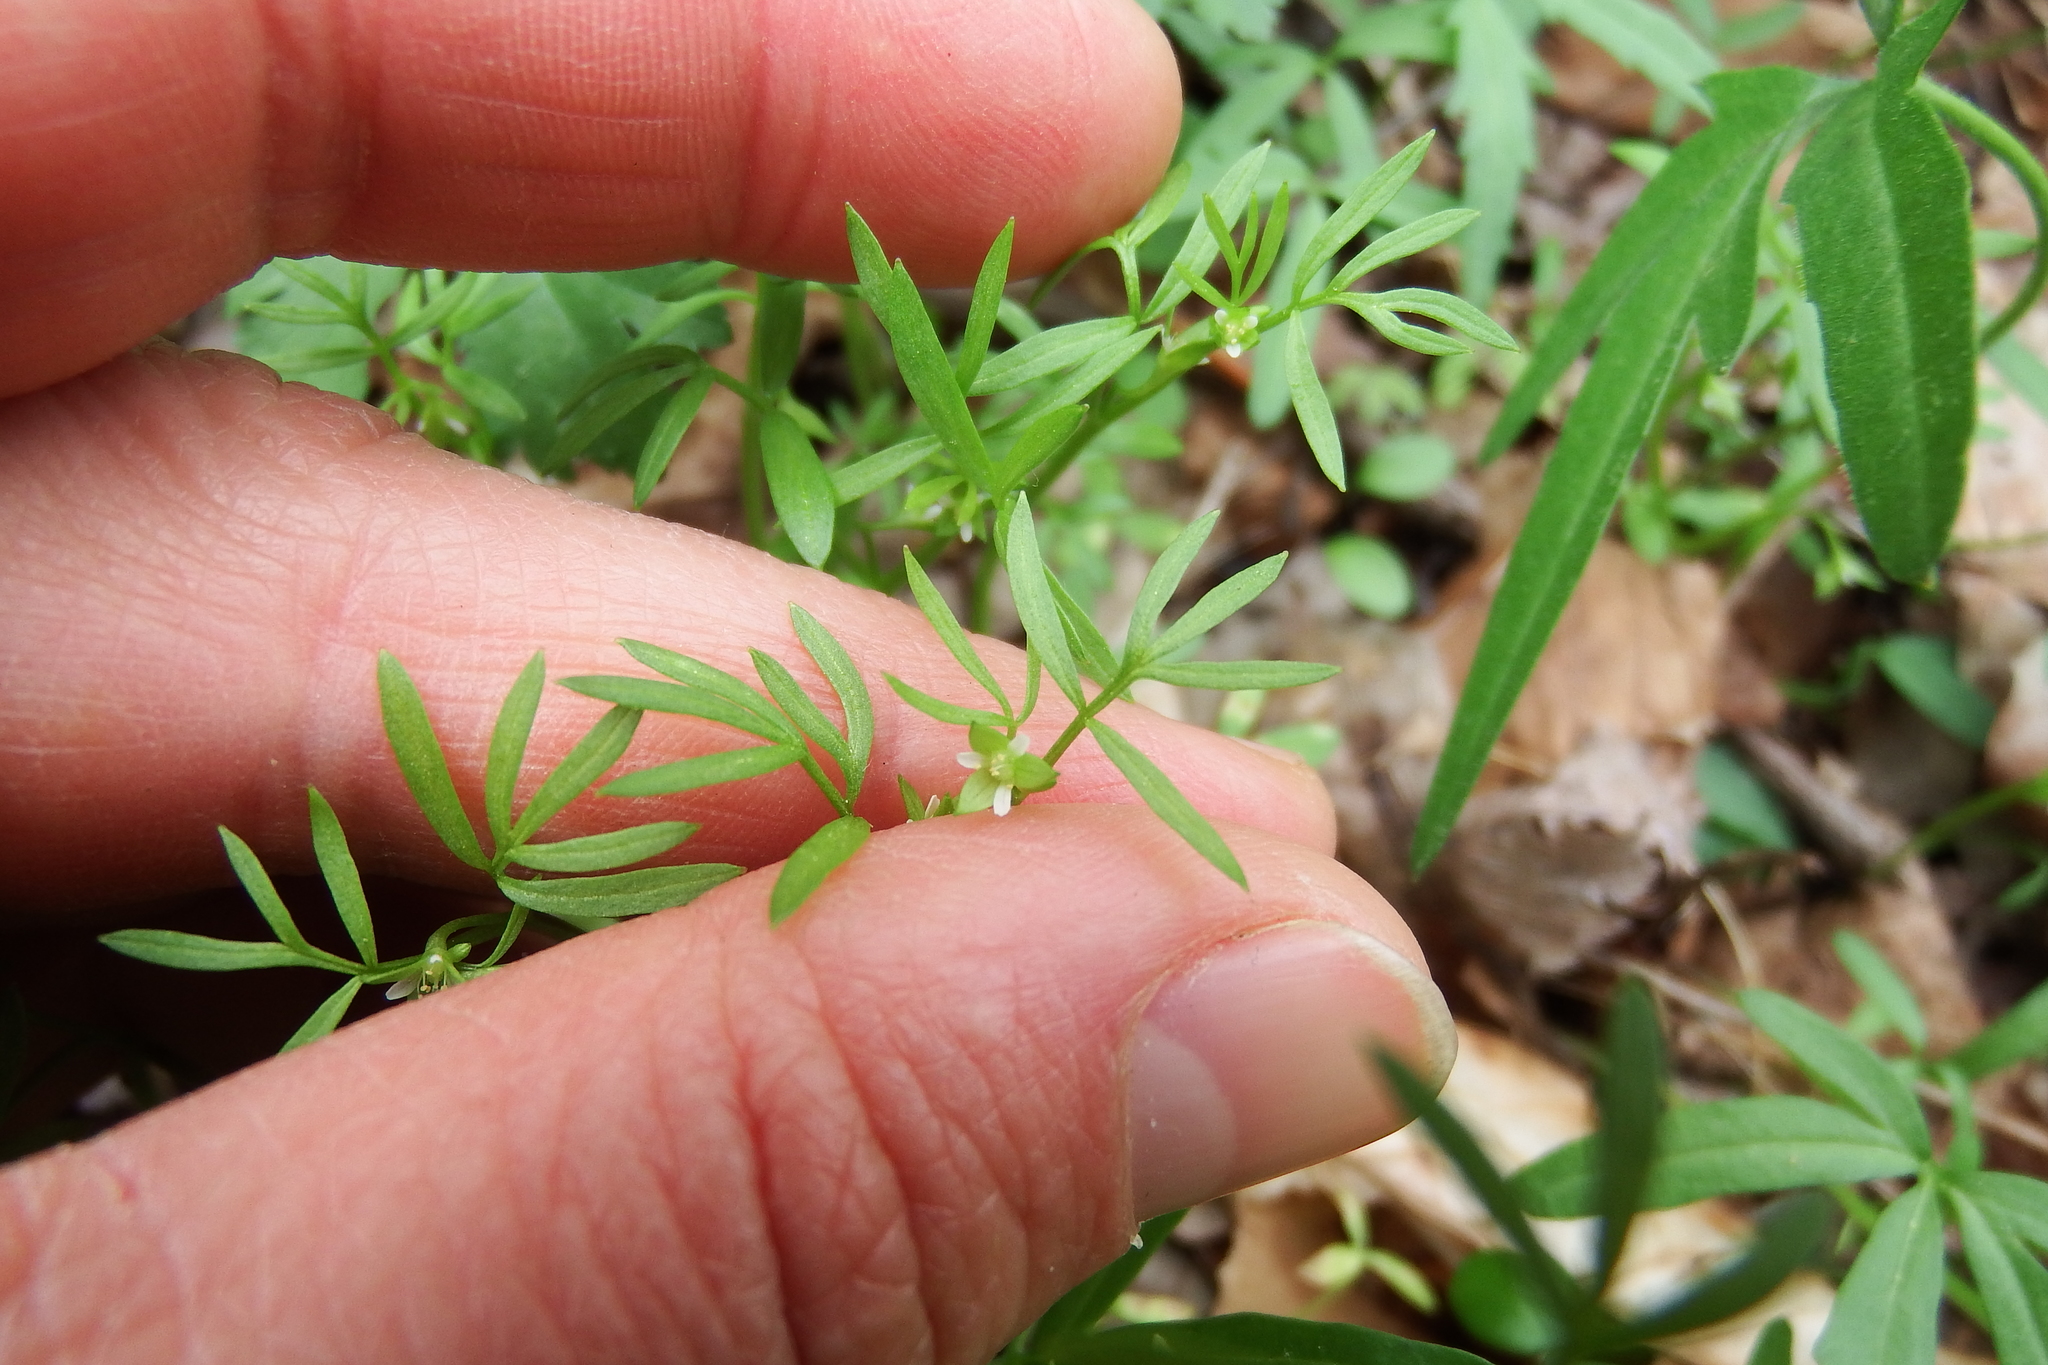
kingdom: Plantae
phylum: Tracheophyta
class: Magnoliopsida
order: Brassicales
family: Limnanthaceae
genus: Floerkea
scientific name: Floerkea proserpinacoides
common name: False mermaid
